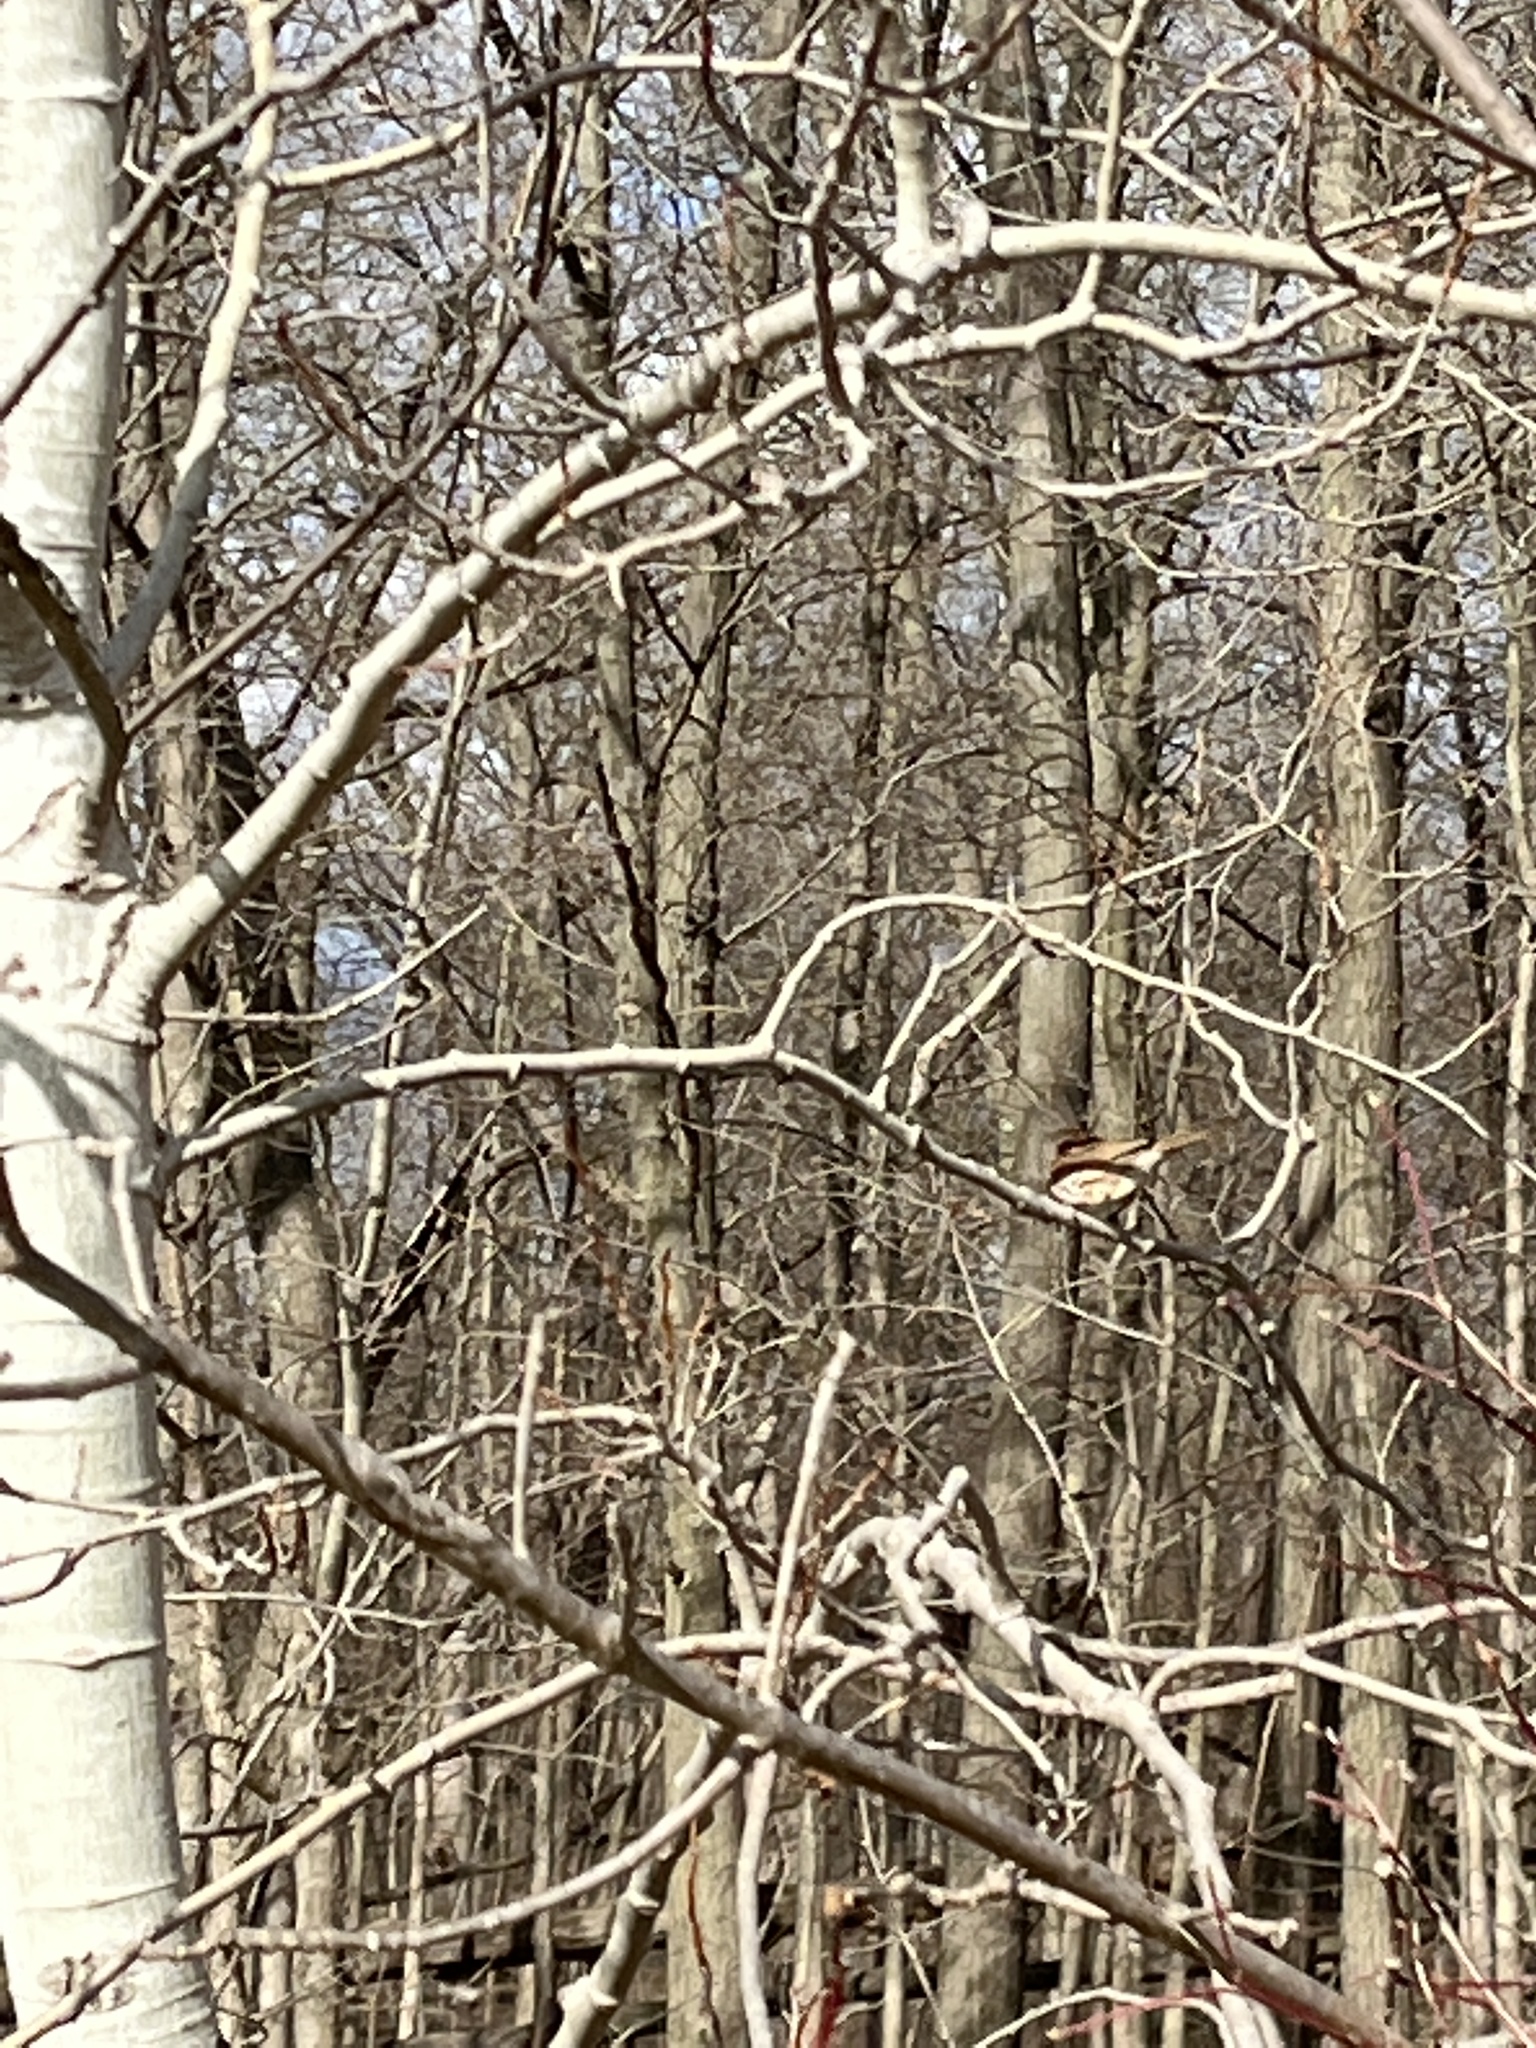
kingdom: Animalia
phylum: Chordata
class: Aves
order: Passeriformes
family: Passeridae
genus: Passer
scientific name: Passer domesticus
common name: House sparrow
